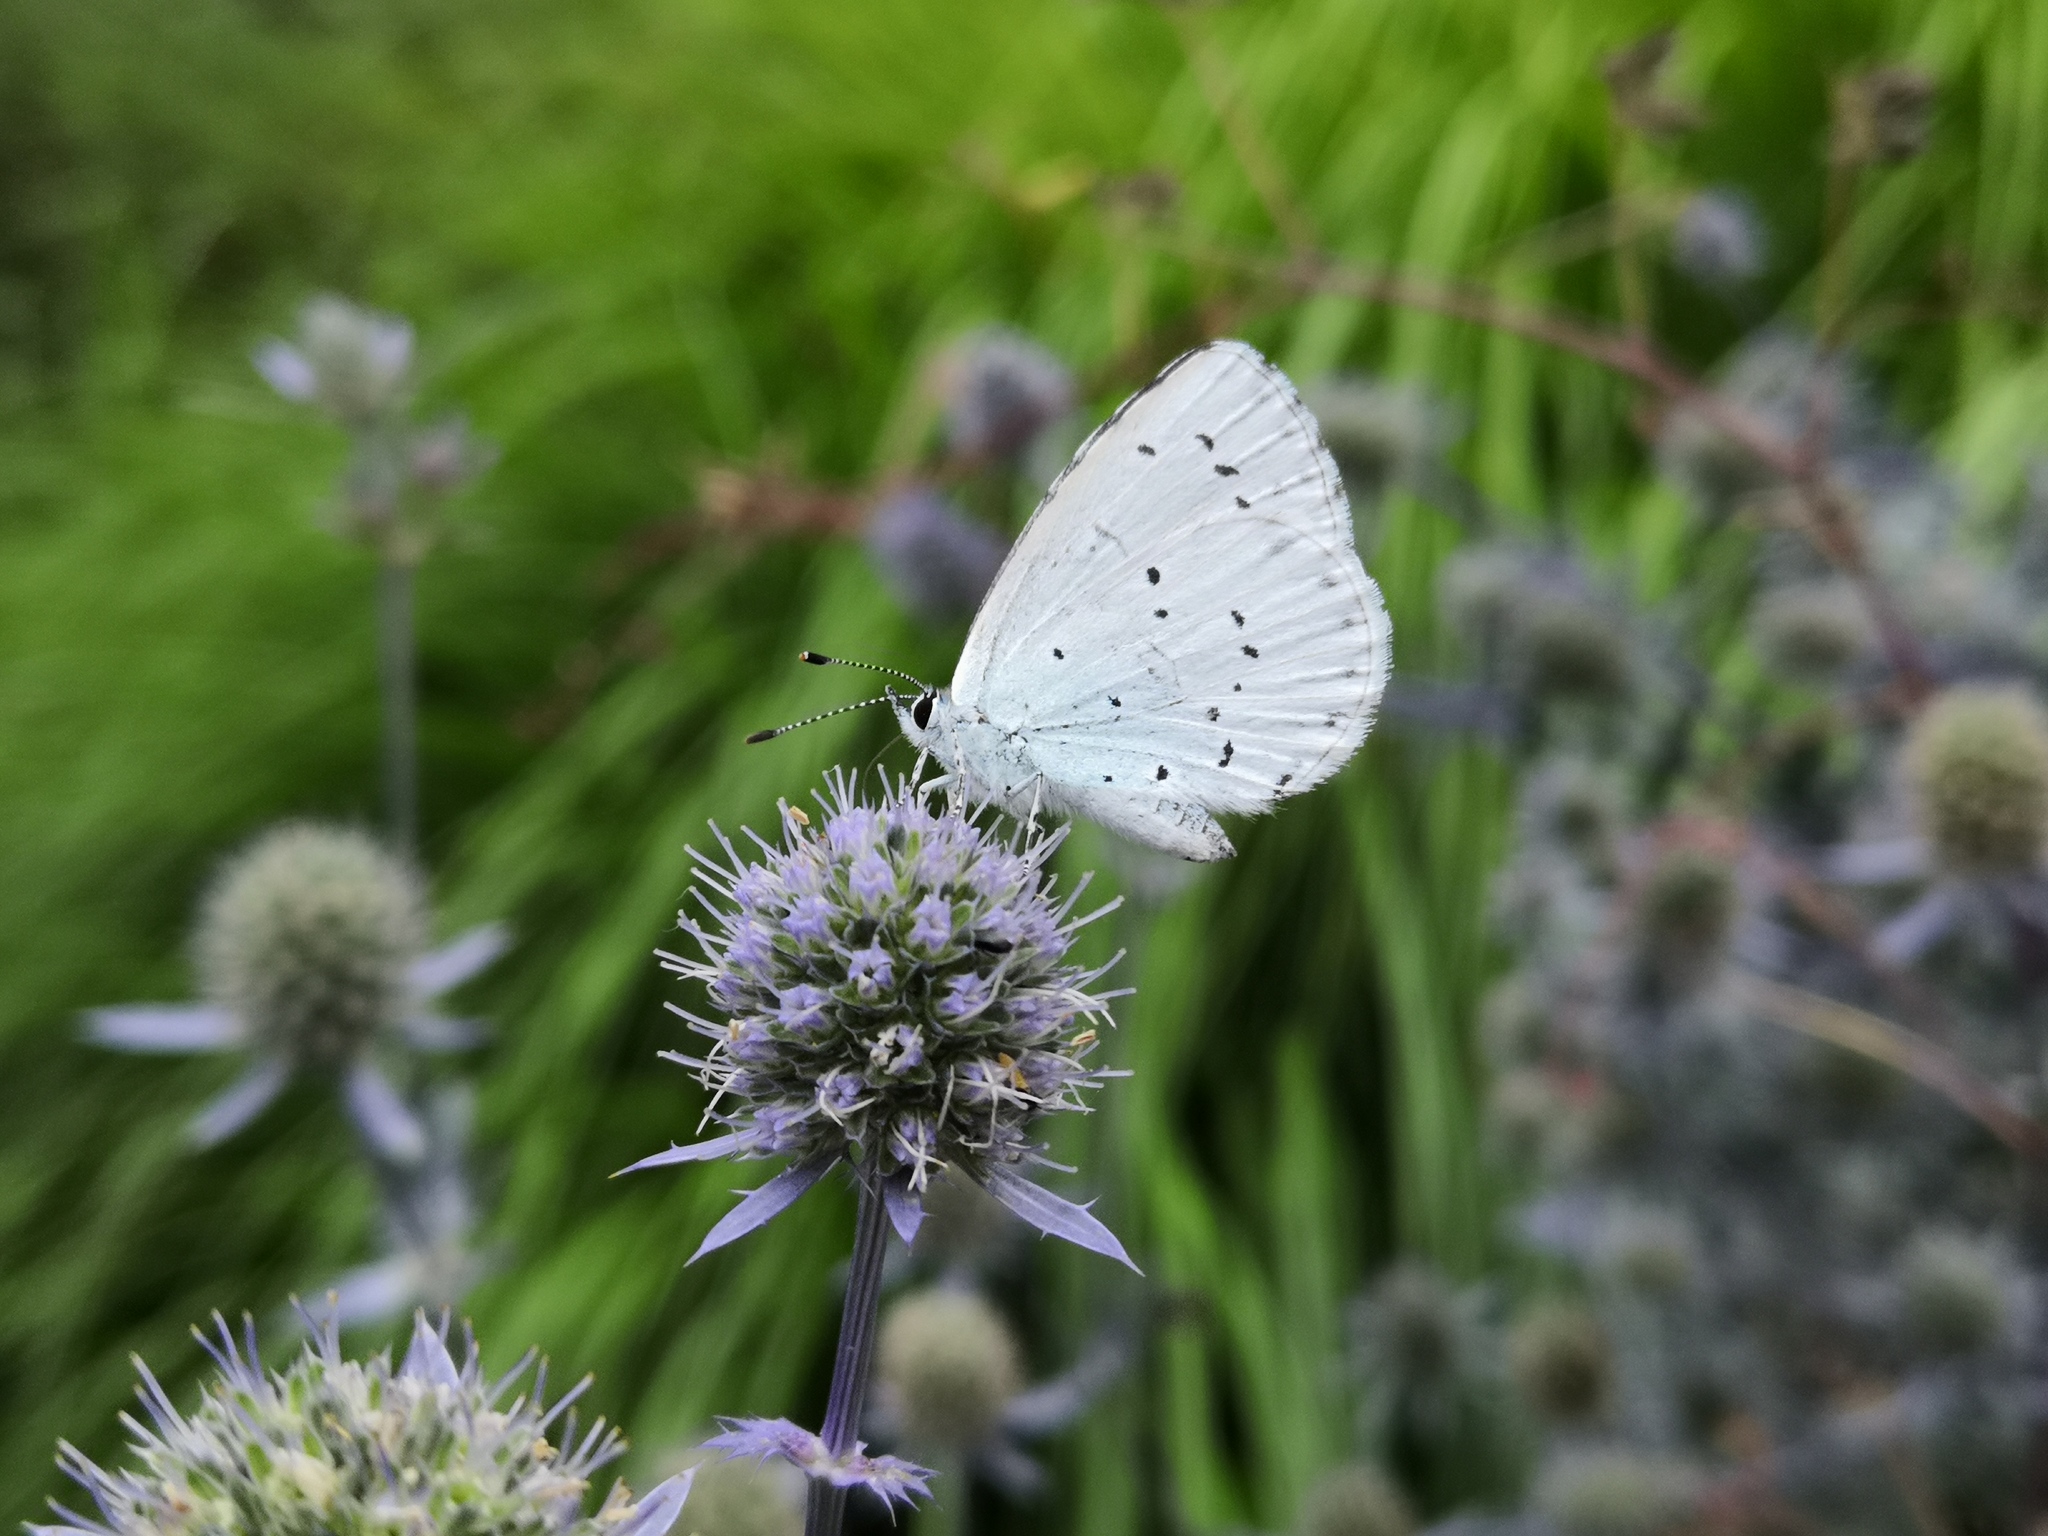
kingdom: Animalia
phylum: Arthropoda
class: Insecta
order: Lepidoptera
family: Lycaenidae
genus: Celastrina
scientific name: Celastrina argiolus
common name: Holly blue
